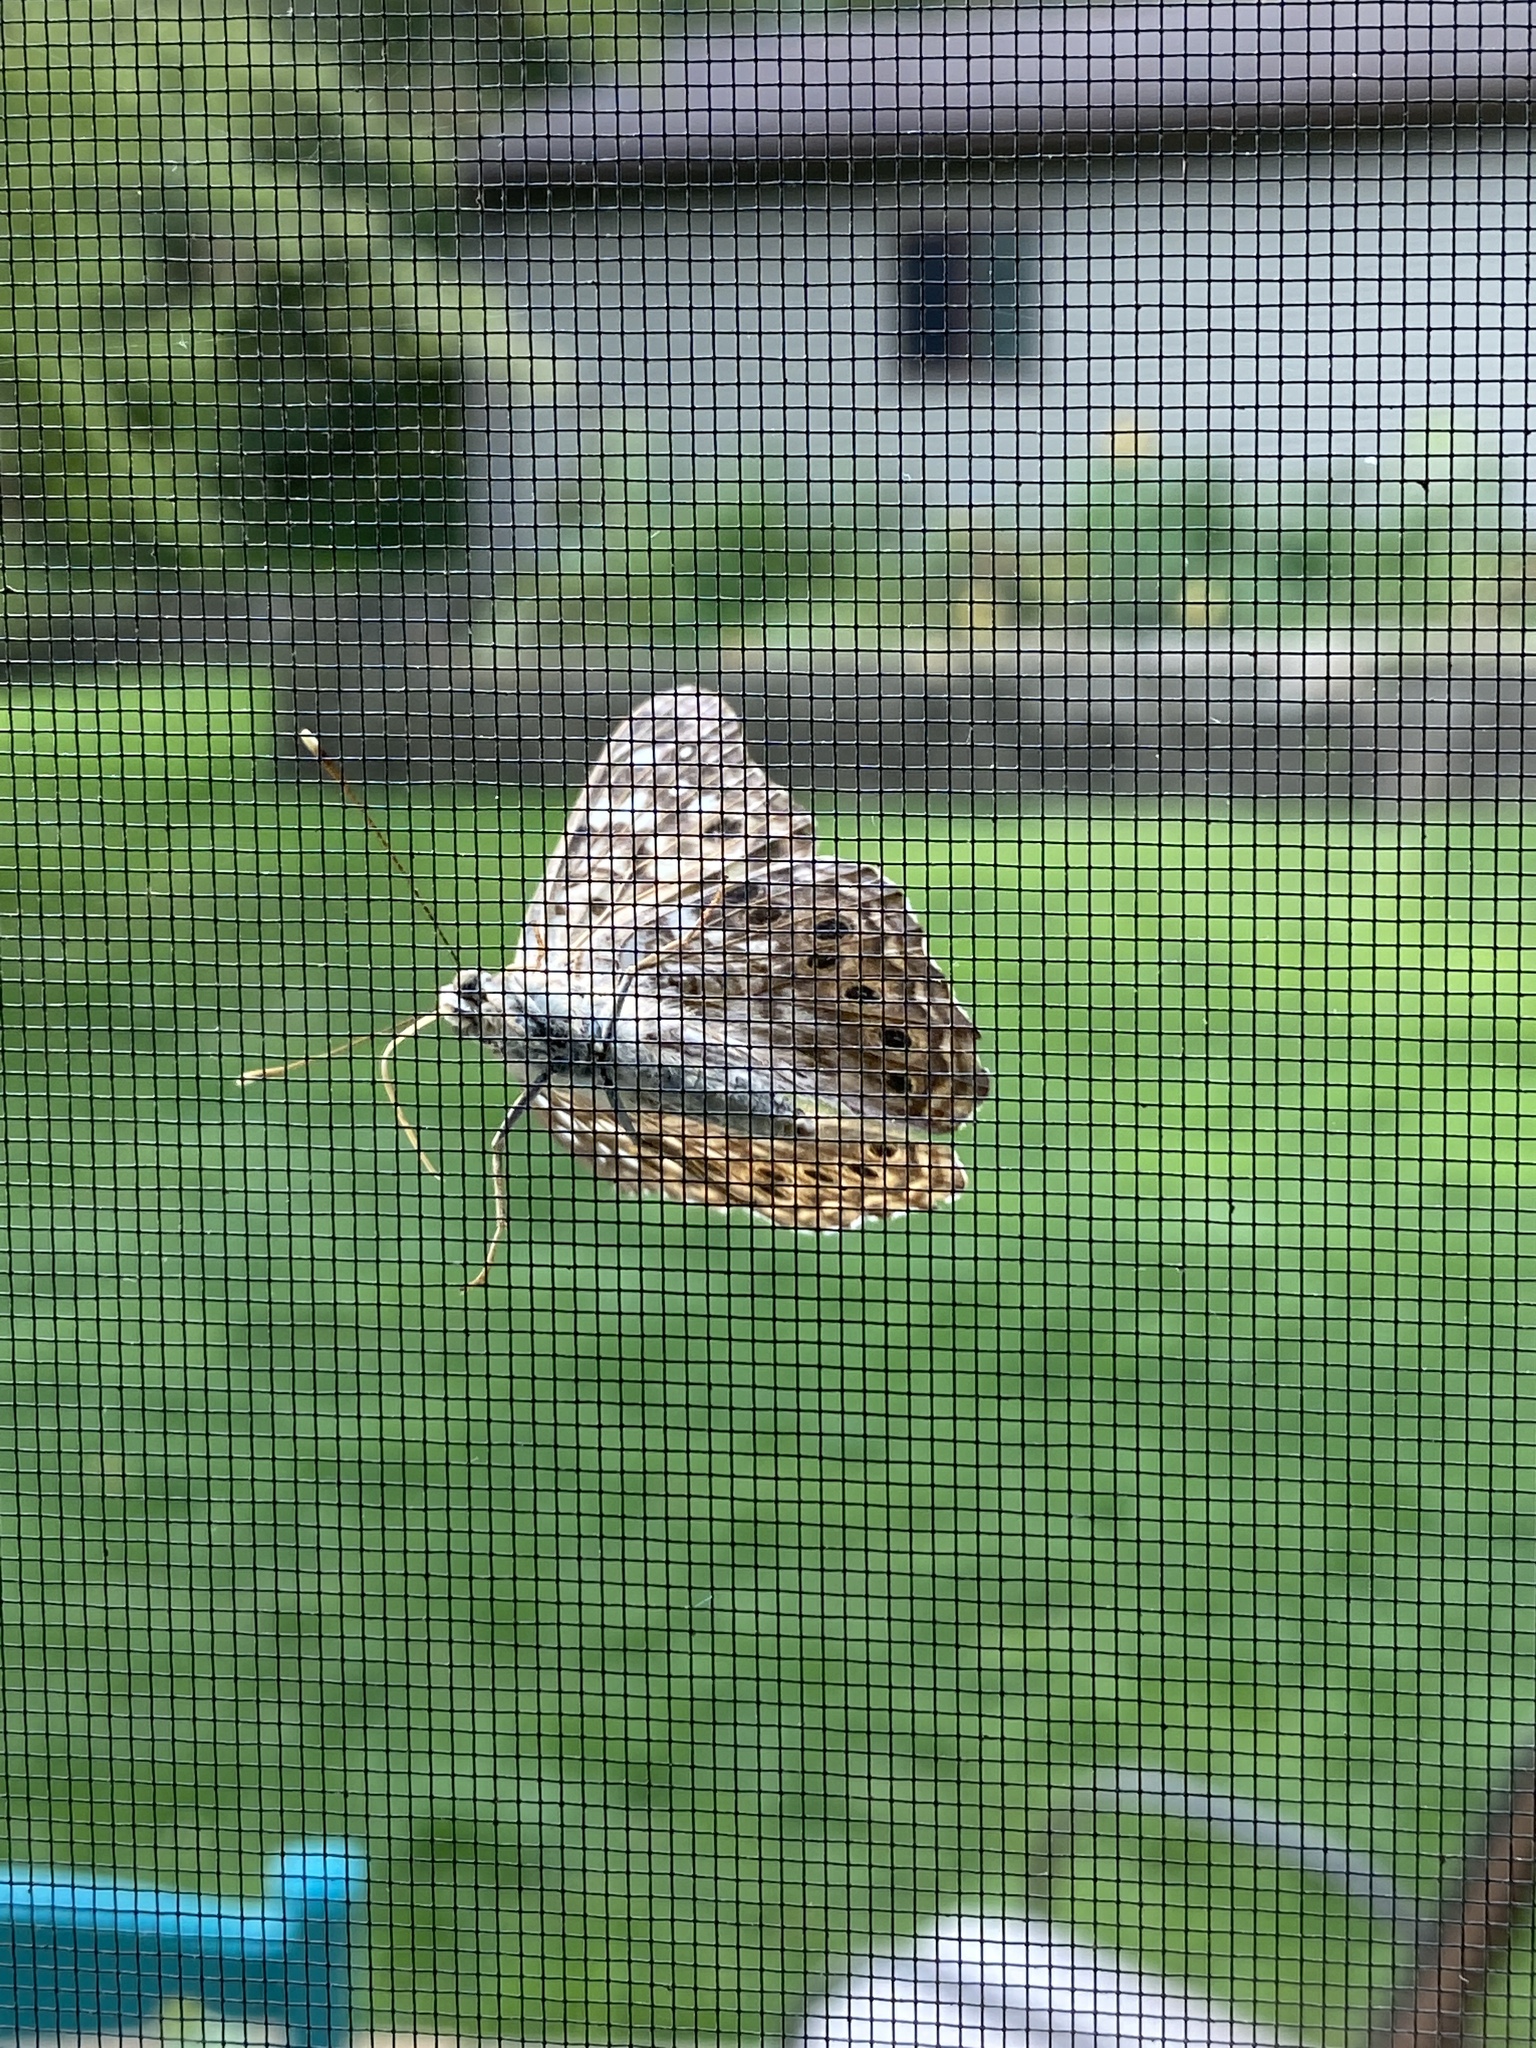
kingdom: Animalia
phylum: Arthropoda
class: Insecta
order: Lepidoptera
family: Nymphalidae
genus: Asterocampa
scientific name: Asterocampa celtis
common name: Hackberry emperor
